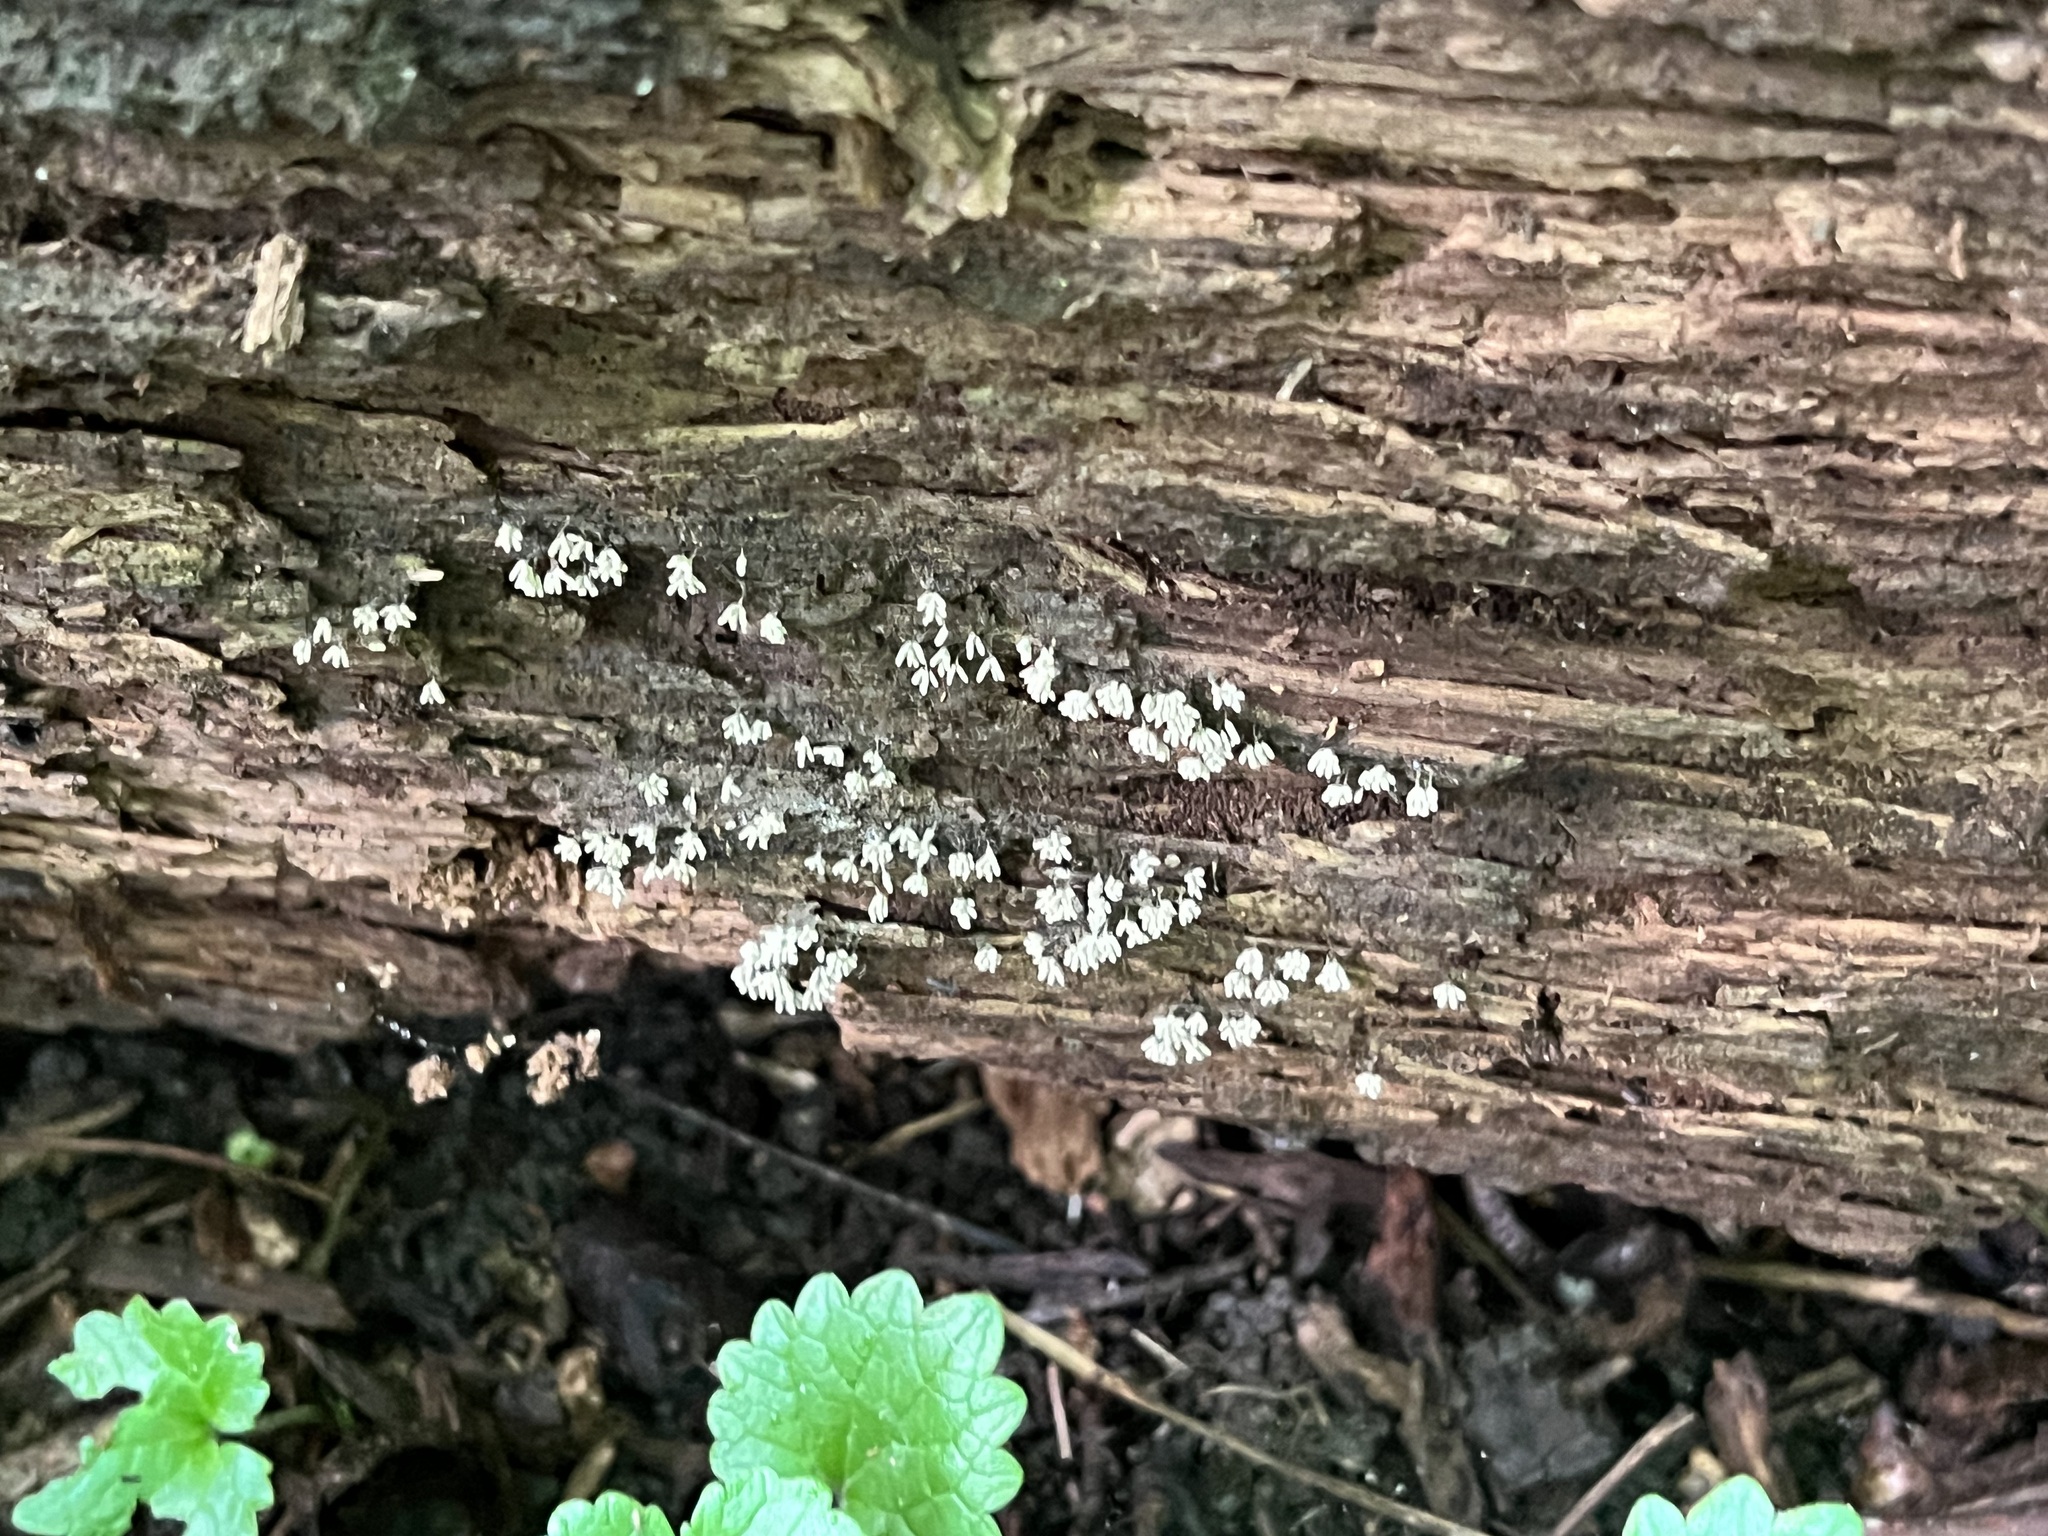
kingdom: Protozoa
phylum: Mycetozoa
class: Myxomycetes
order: Trichiales
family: Arcyriaceae
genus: Arcyria
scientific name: Arcyria cinerea
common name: White carnival candy slime mold
